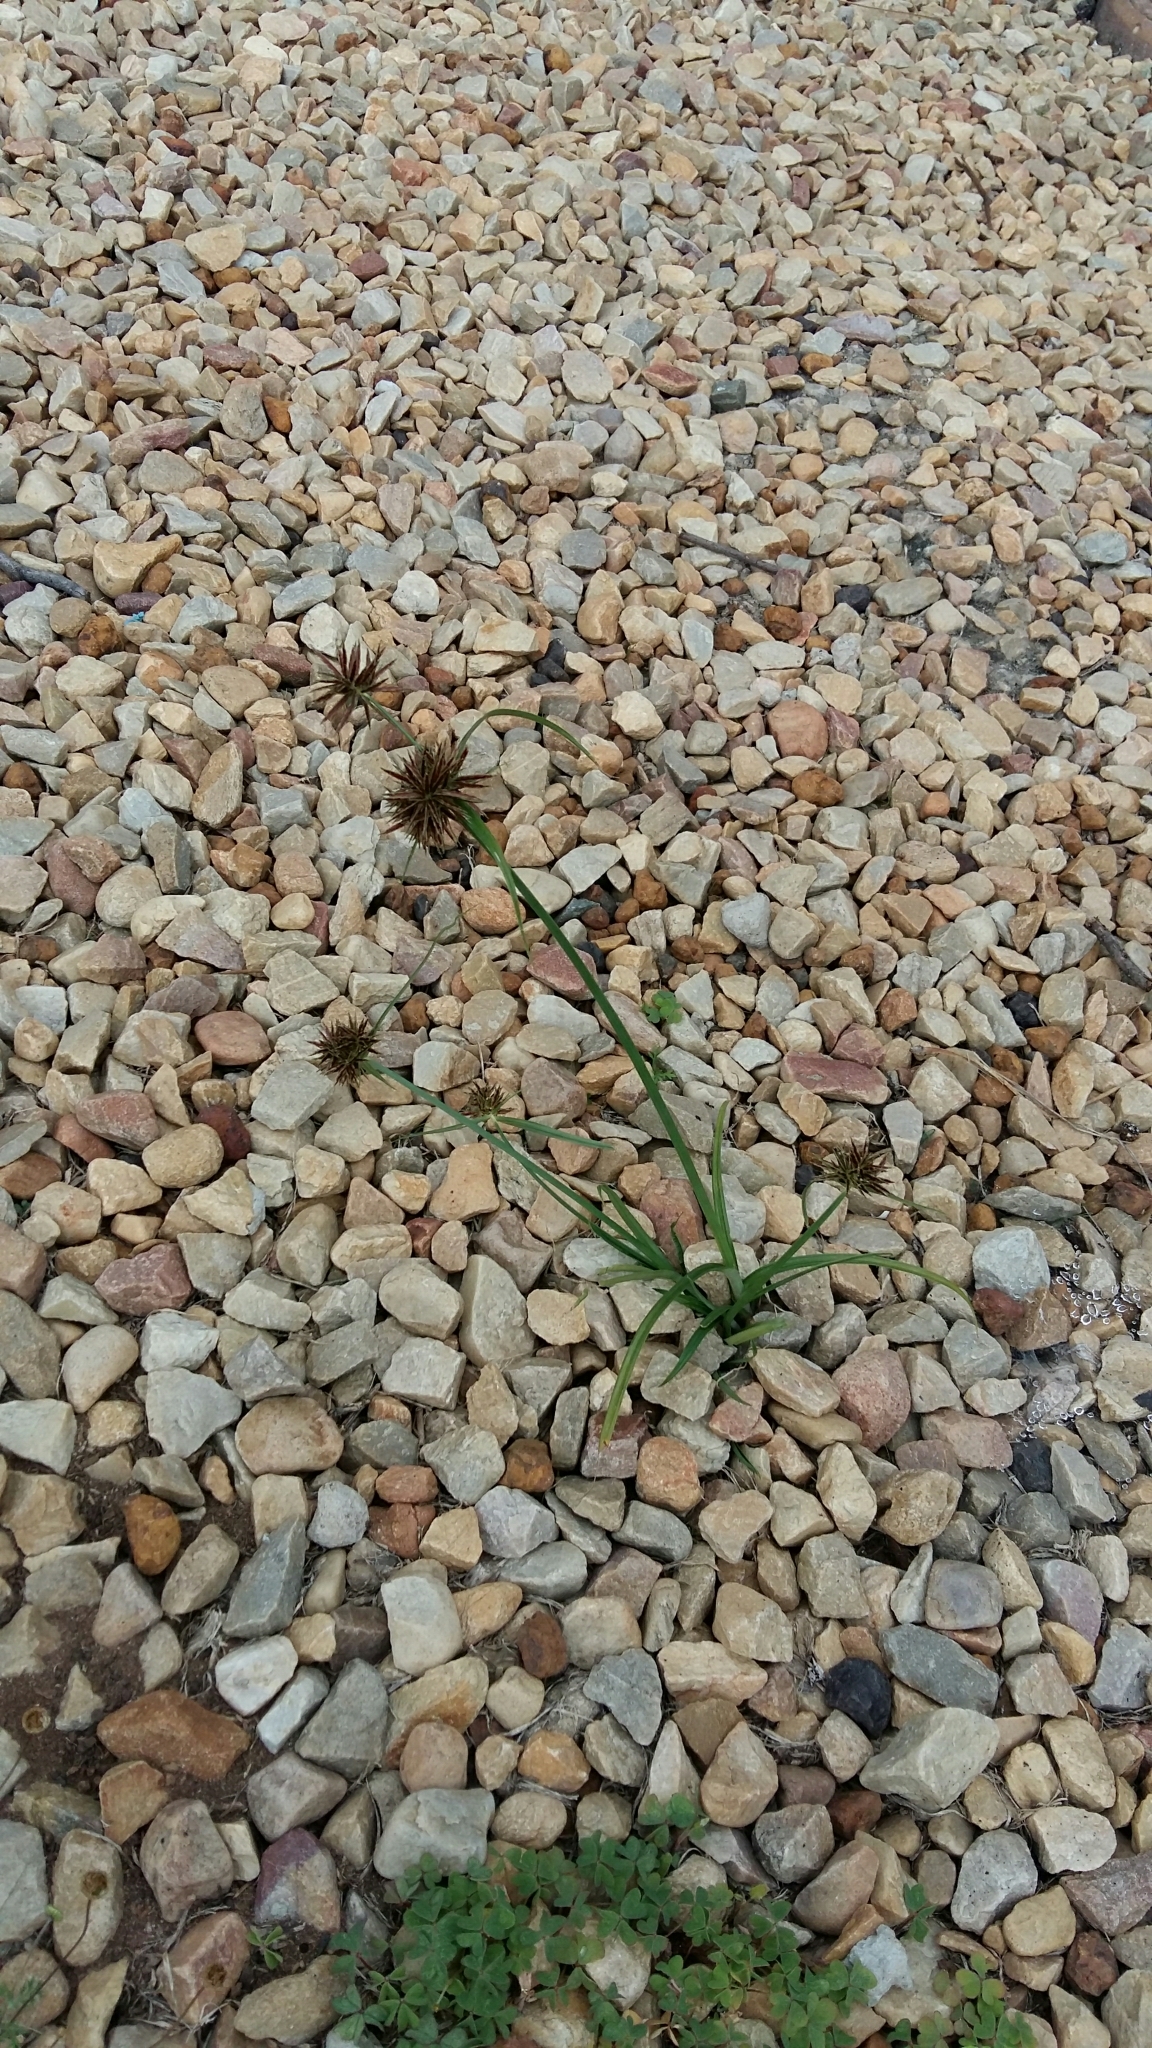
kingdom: Plantae
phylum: Tracheophyta
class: Liliopsida
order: Poales
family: Cyperaceae
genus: Cyperus
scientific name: Cyperus congestus
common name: Dense flat sedge
